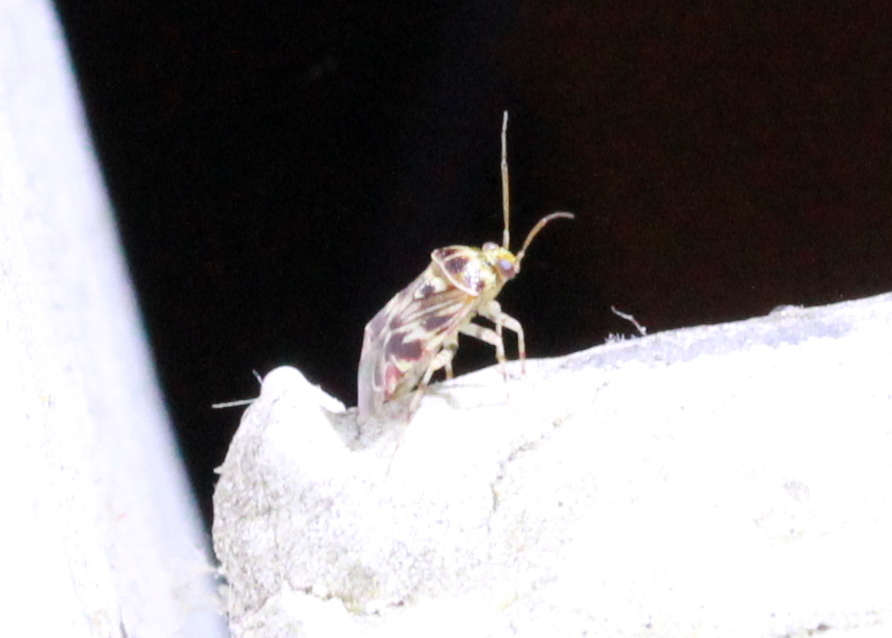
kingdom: Animalia
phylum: Arthropoda
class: Insecta
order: Hemiptera
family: Miridae
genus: Tropidosteptes
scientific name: Tropidosteptes quercicola
